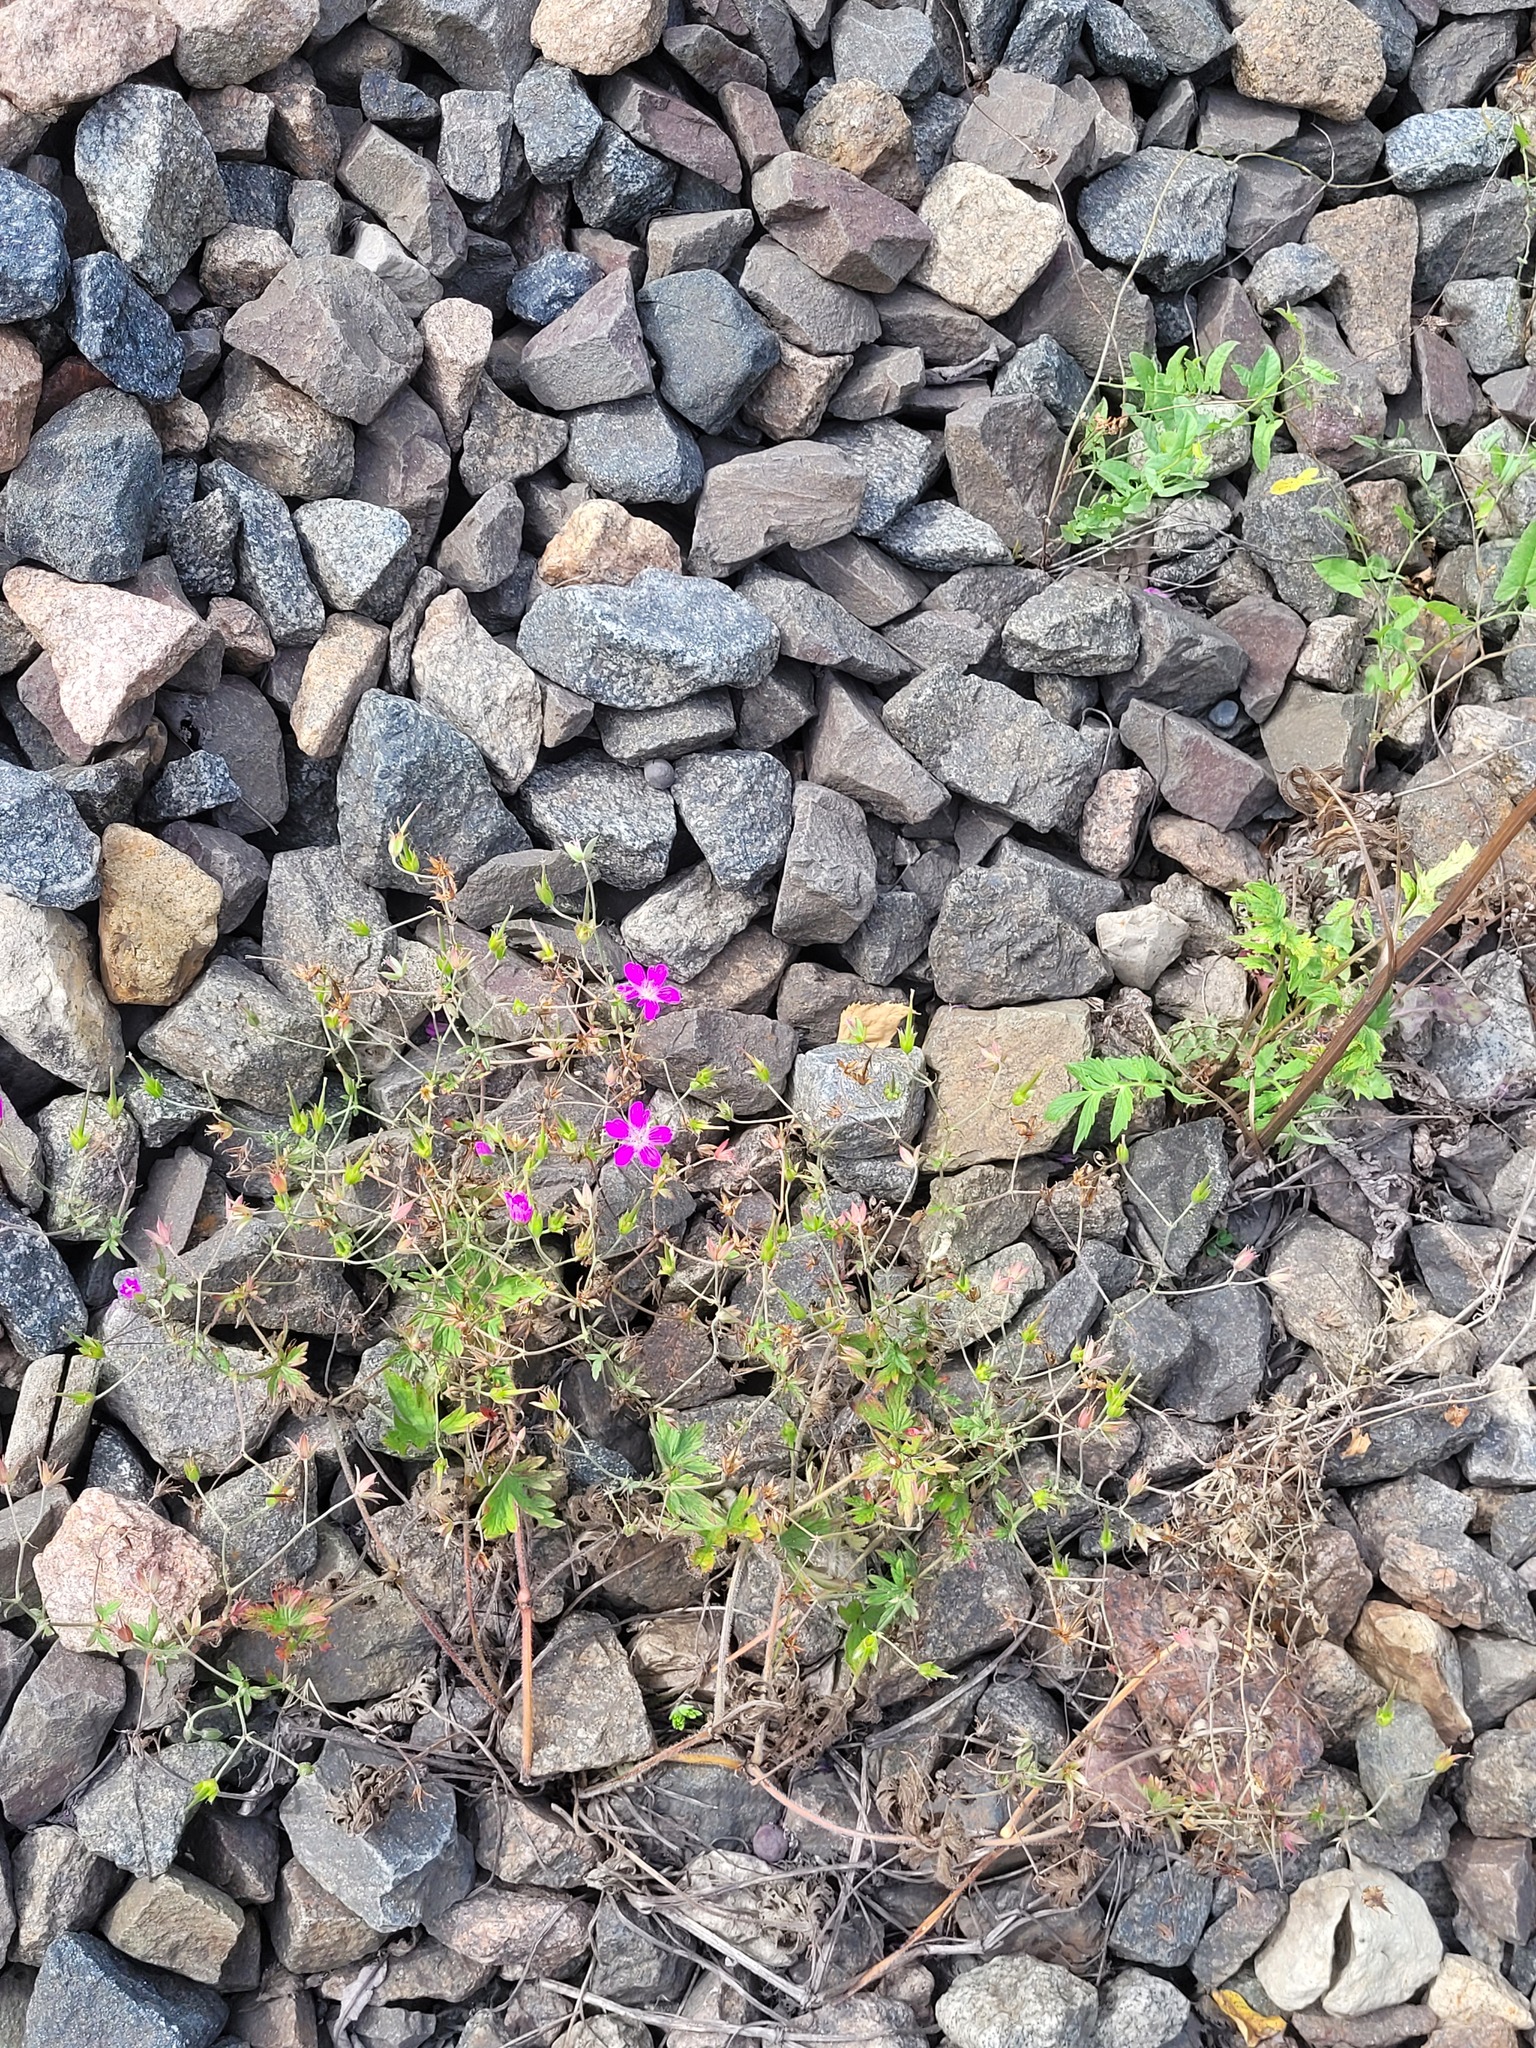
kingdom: Plantae
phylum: Tracheophyta
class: Magnoliopsida
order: Geraniales
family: Geraniaceae
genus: Geranium
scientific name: Geranium palustre
